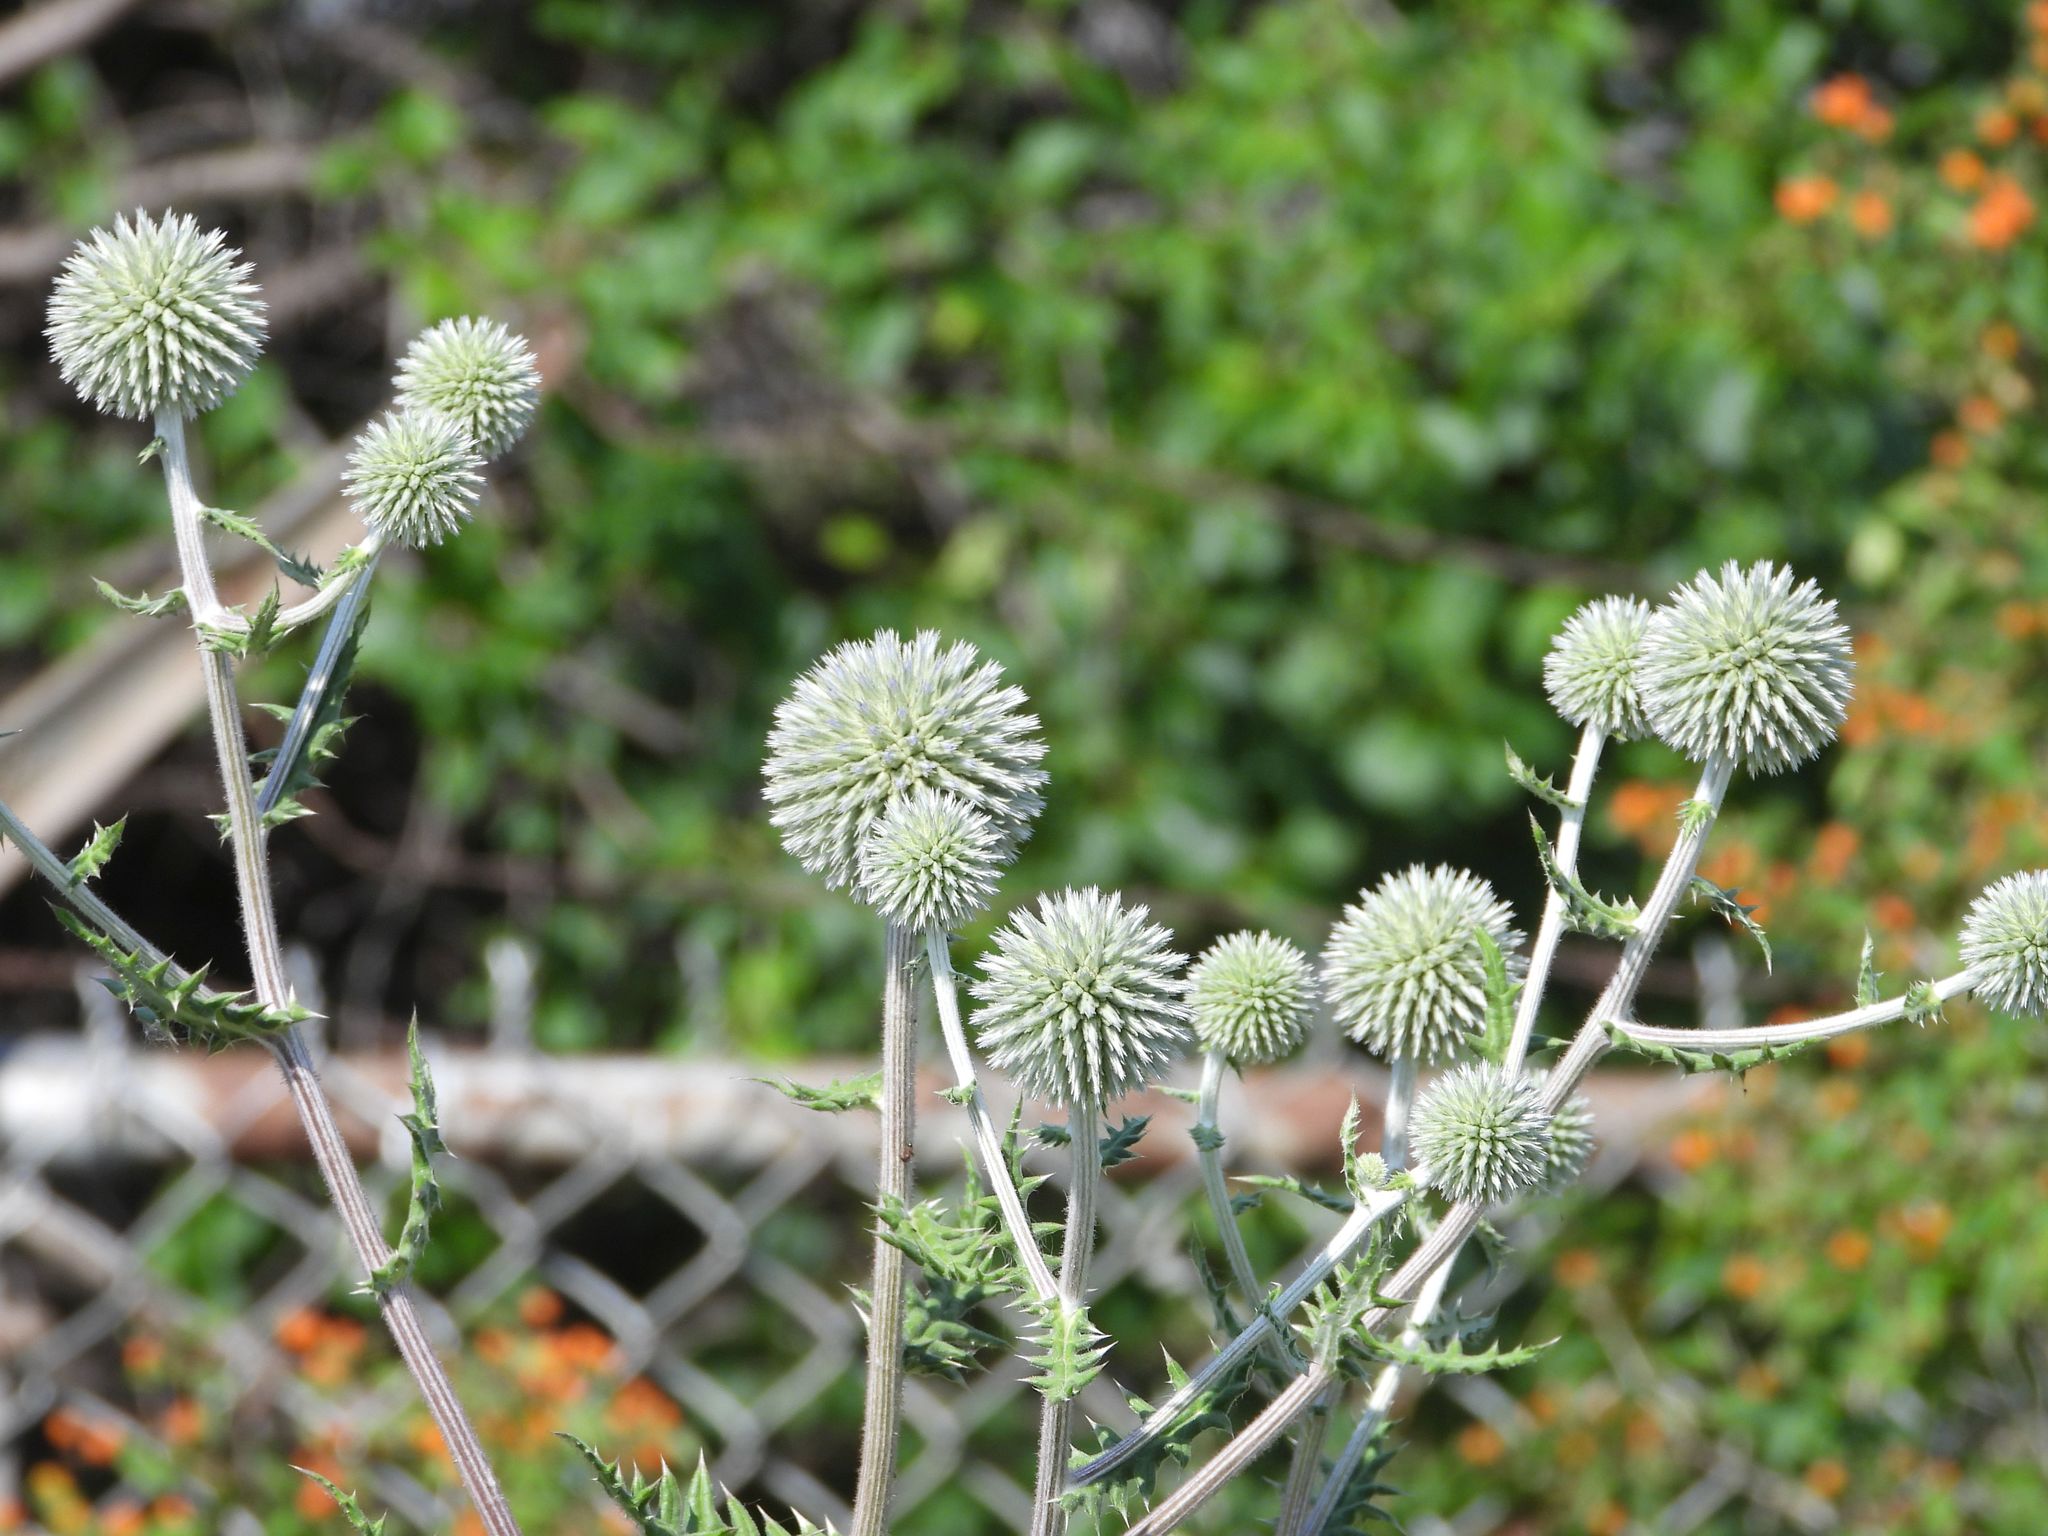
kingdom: Plantae
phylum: Tracheophyta
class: Magnoliopsida
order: Asterales
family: Asteraceae
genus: Echinops
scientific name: Echinops sphaerocephalus
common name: Glandular globe-thistle
